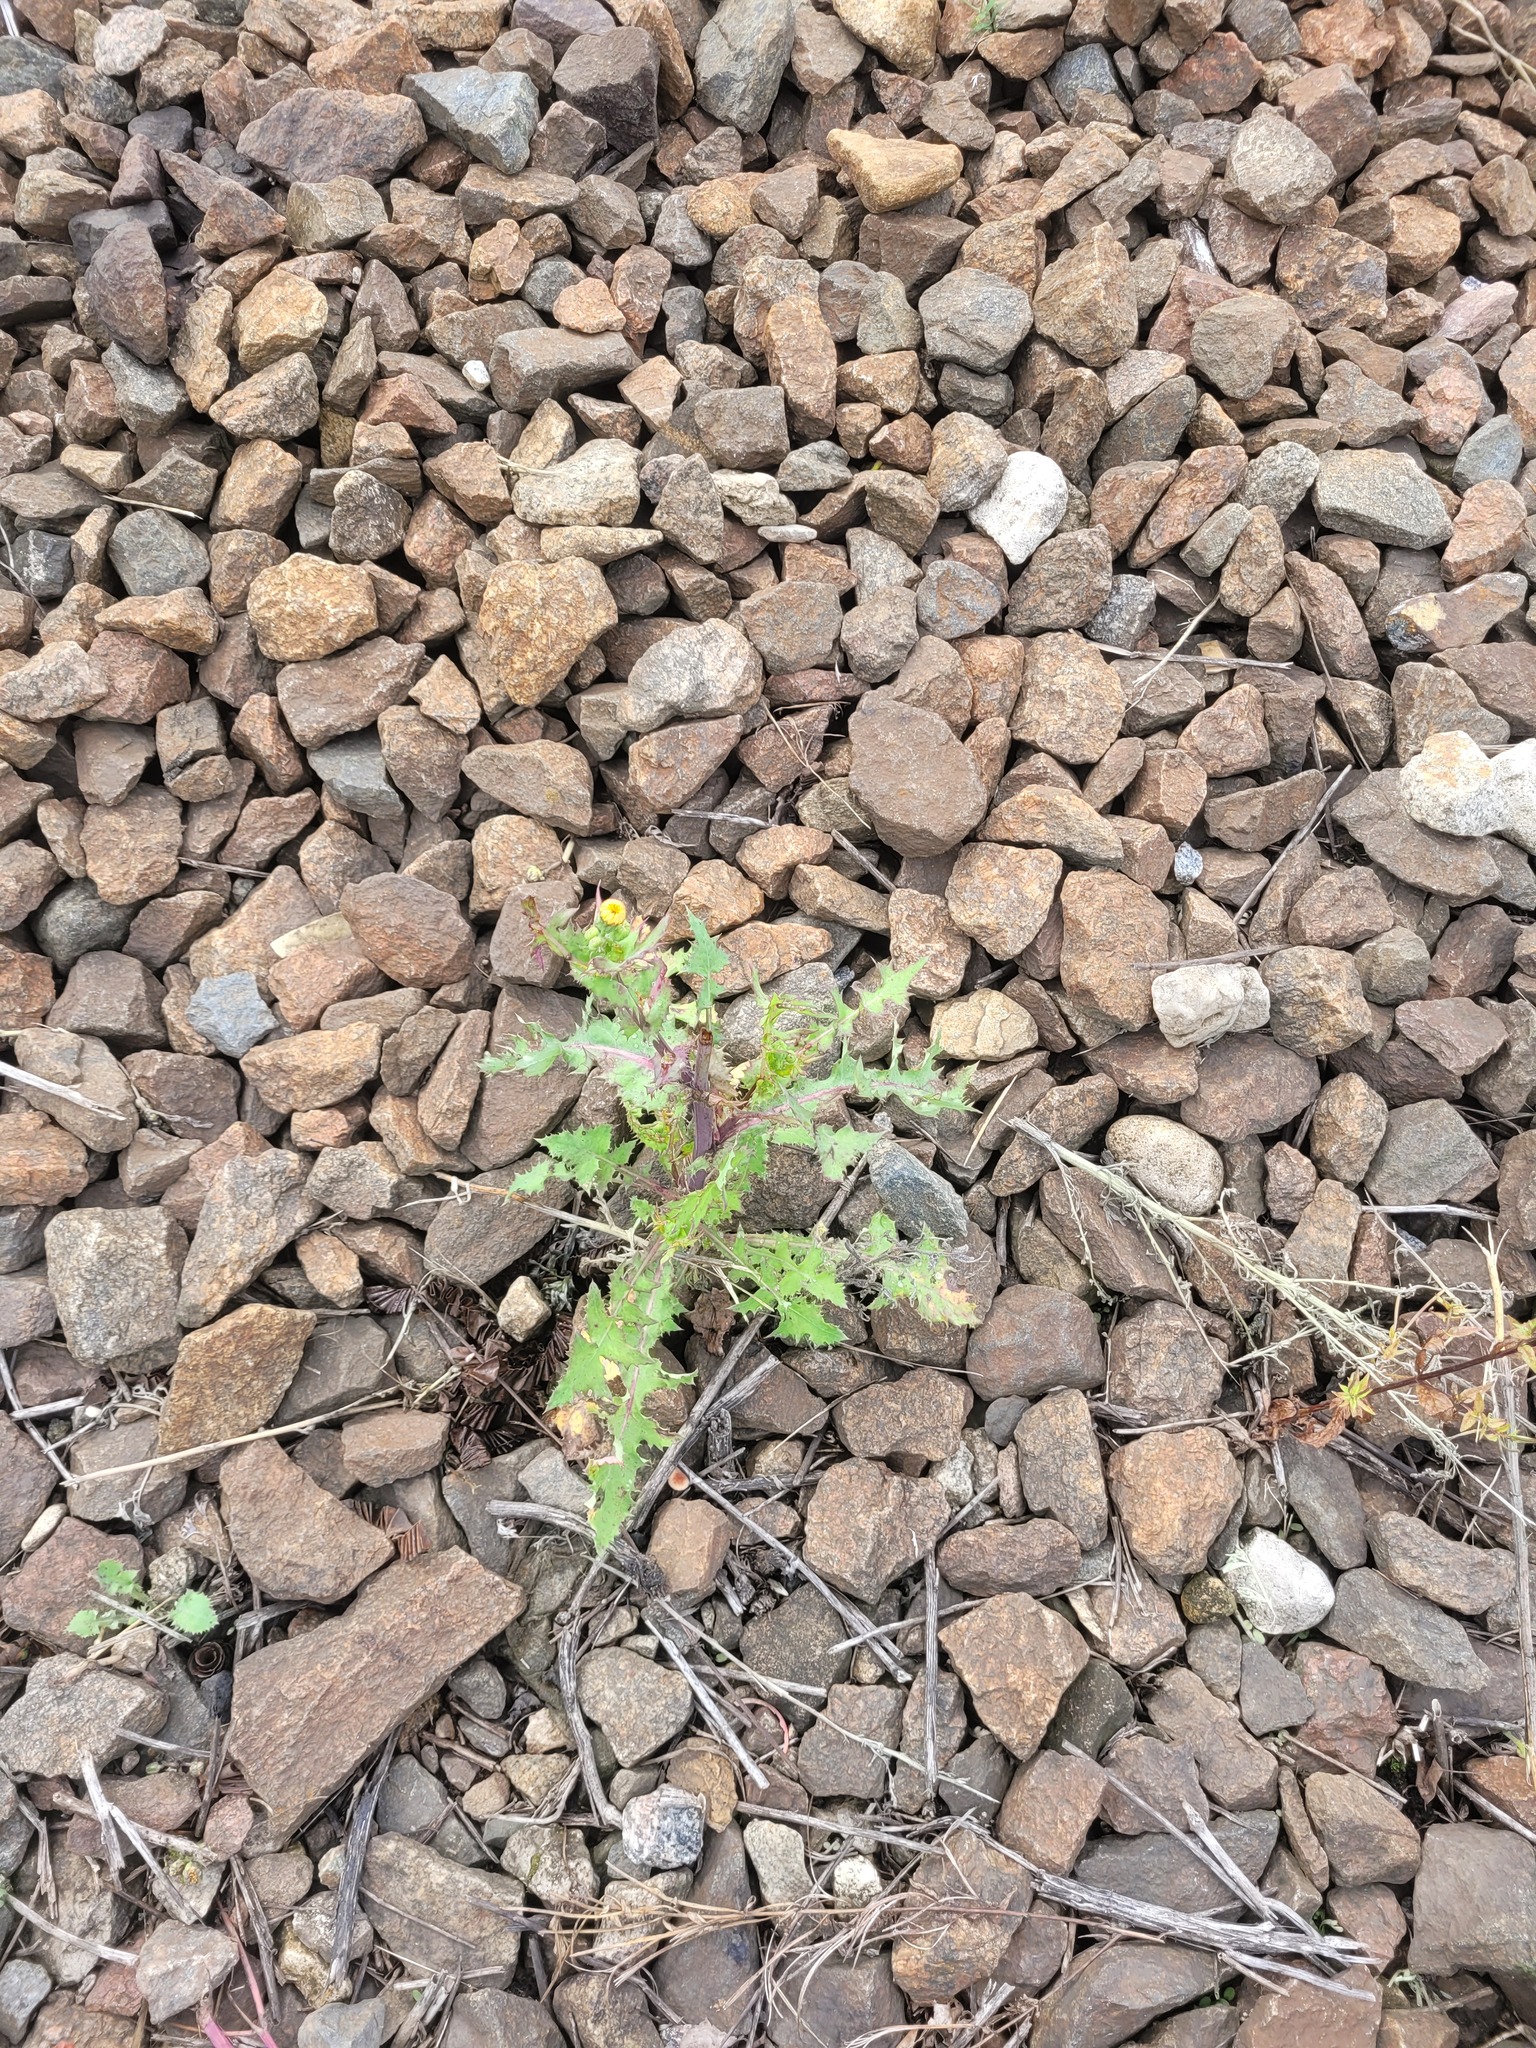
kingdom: Plantae
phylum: Tracheophyta
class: Magnoliopsida
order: Asterales
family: Asteraceae
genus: Sonchus
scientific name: Sonchus oleraceus
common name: Common sowthistle
